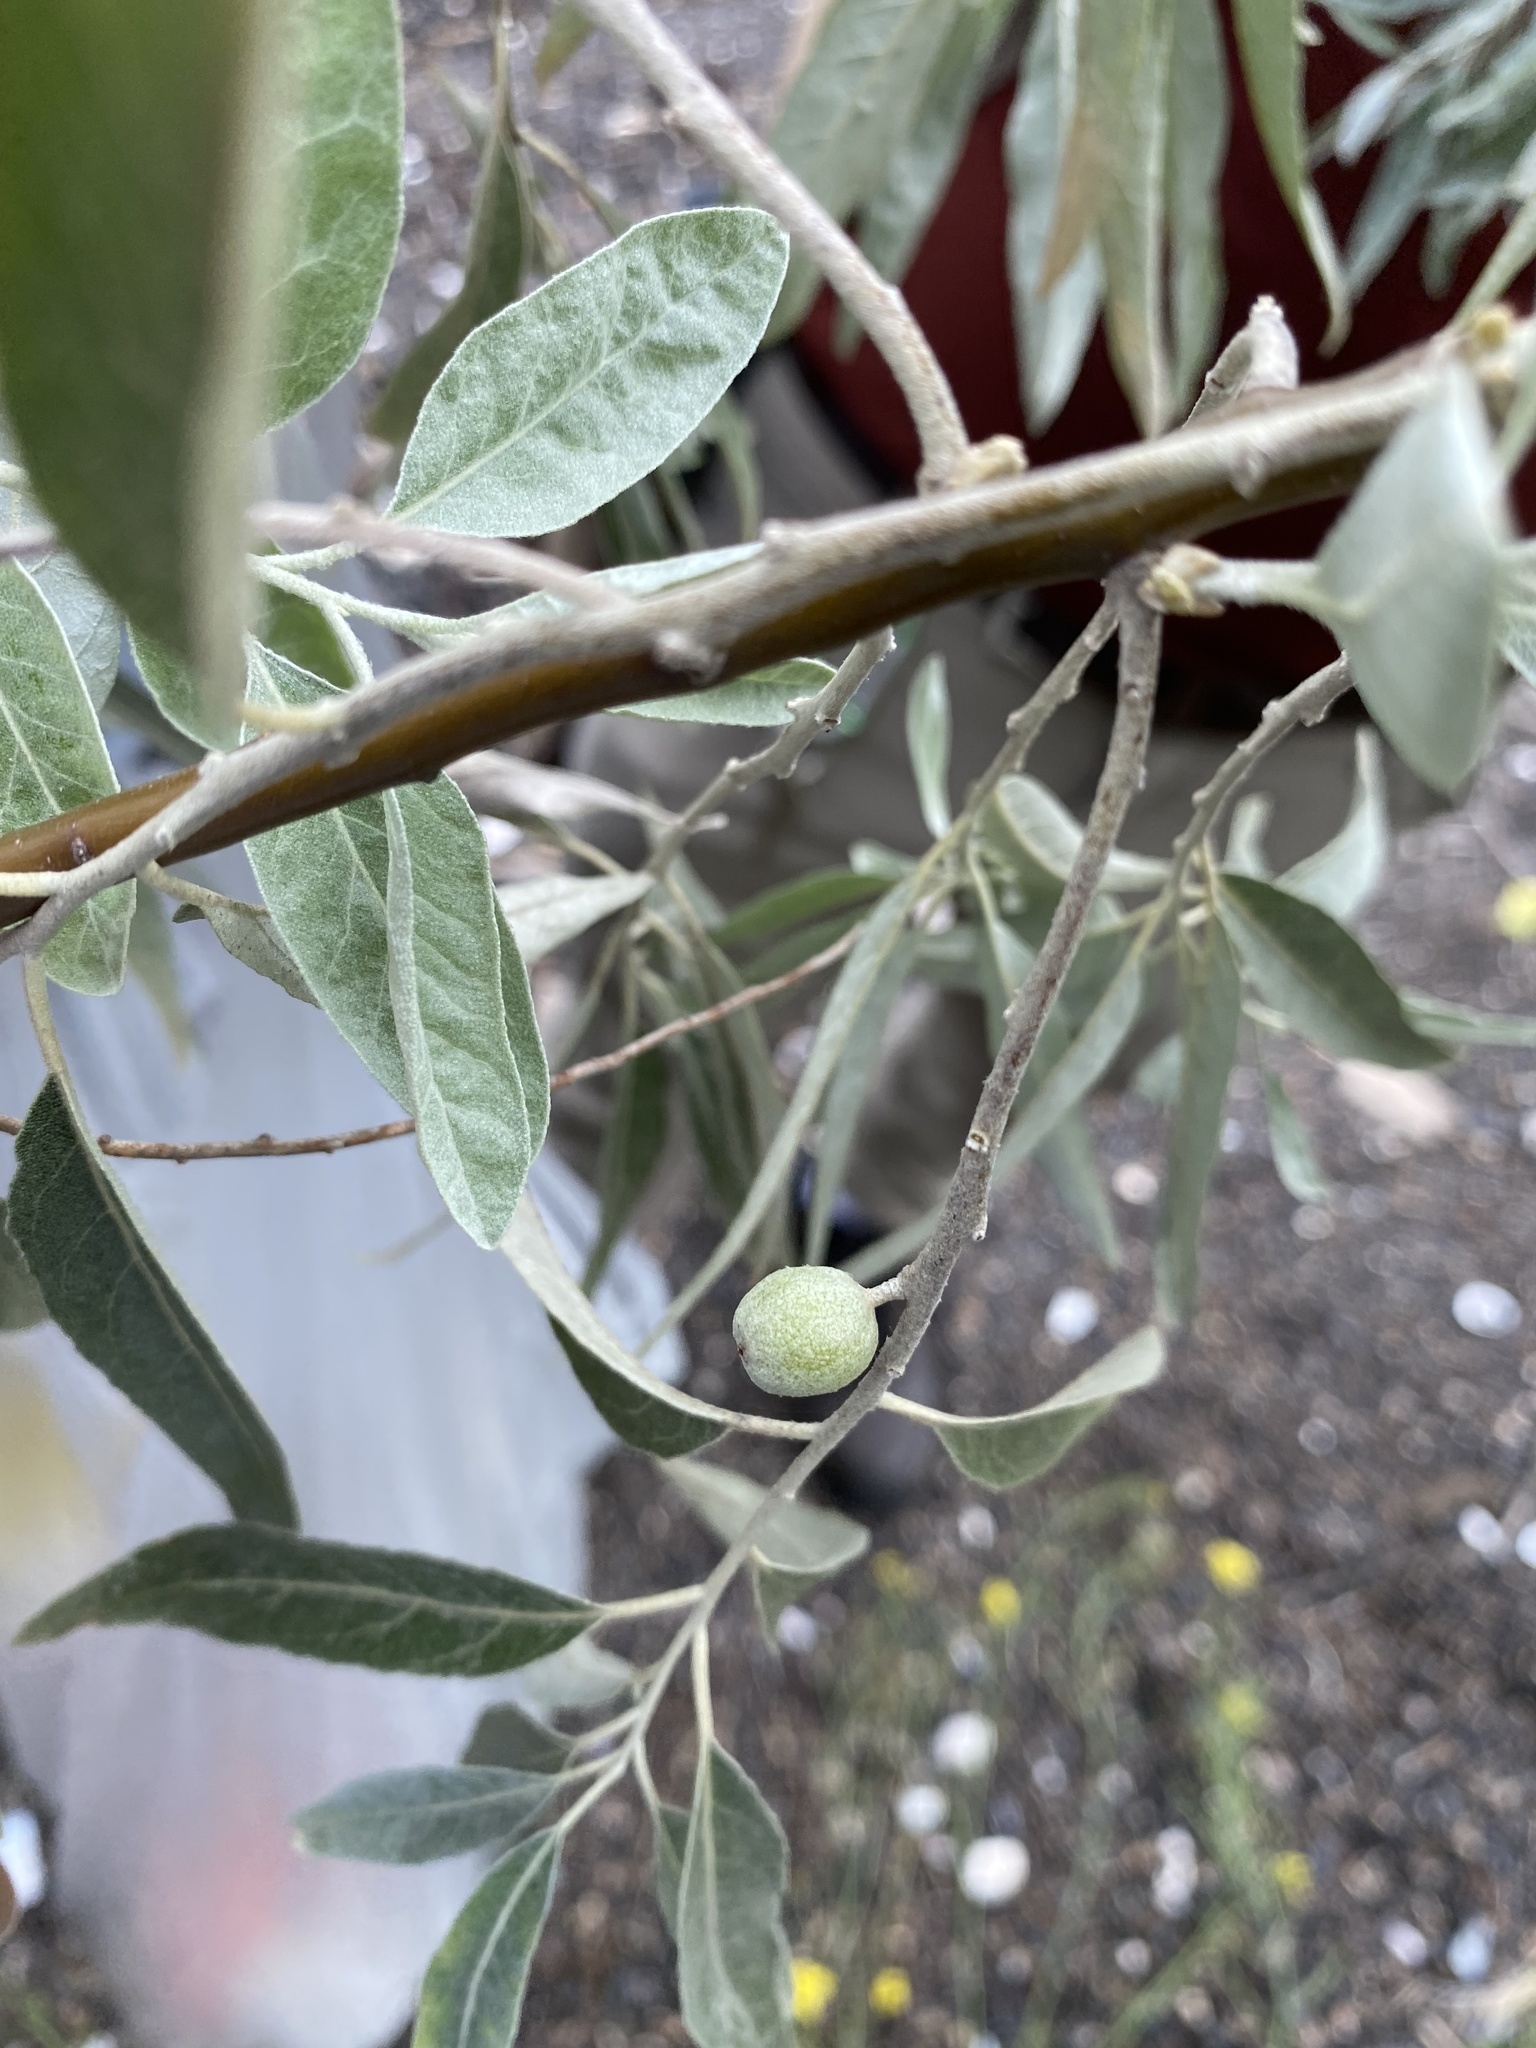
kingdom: Plantae
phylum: Tracheophyta
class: Magnoliopsida
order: Rosales
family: Elaeagnaceae
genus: Elaeagnus
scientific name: Elaeagnus angustifolia
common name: Russian olive
